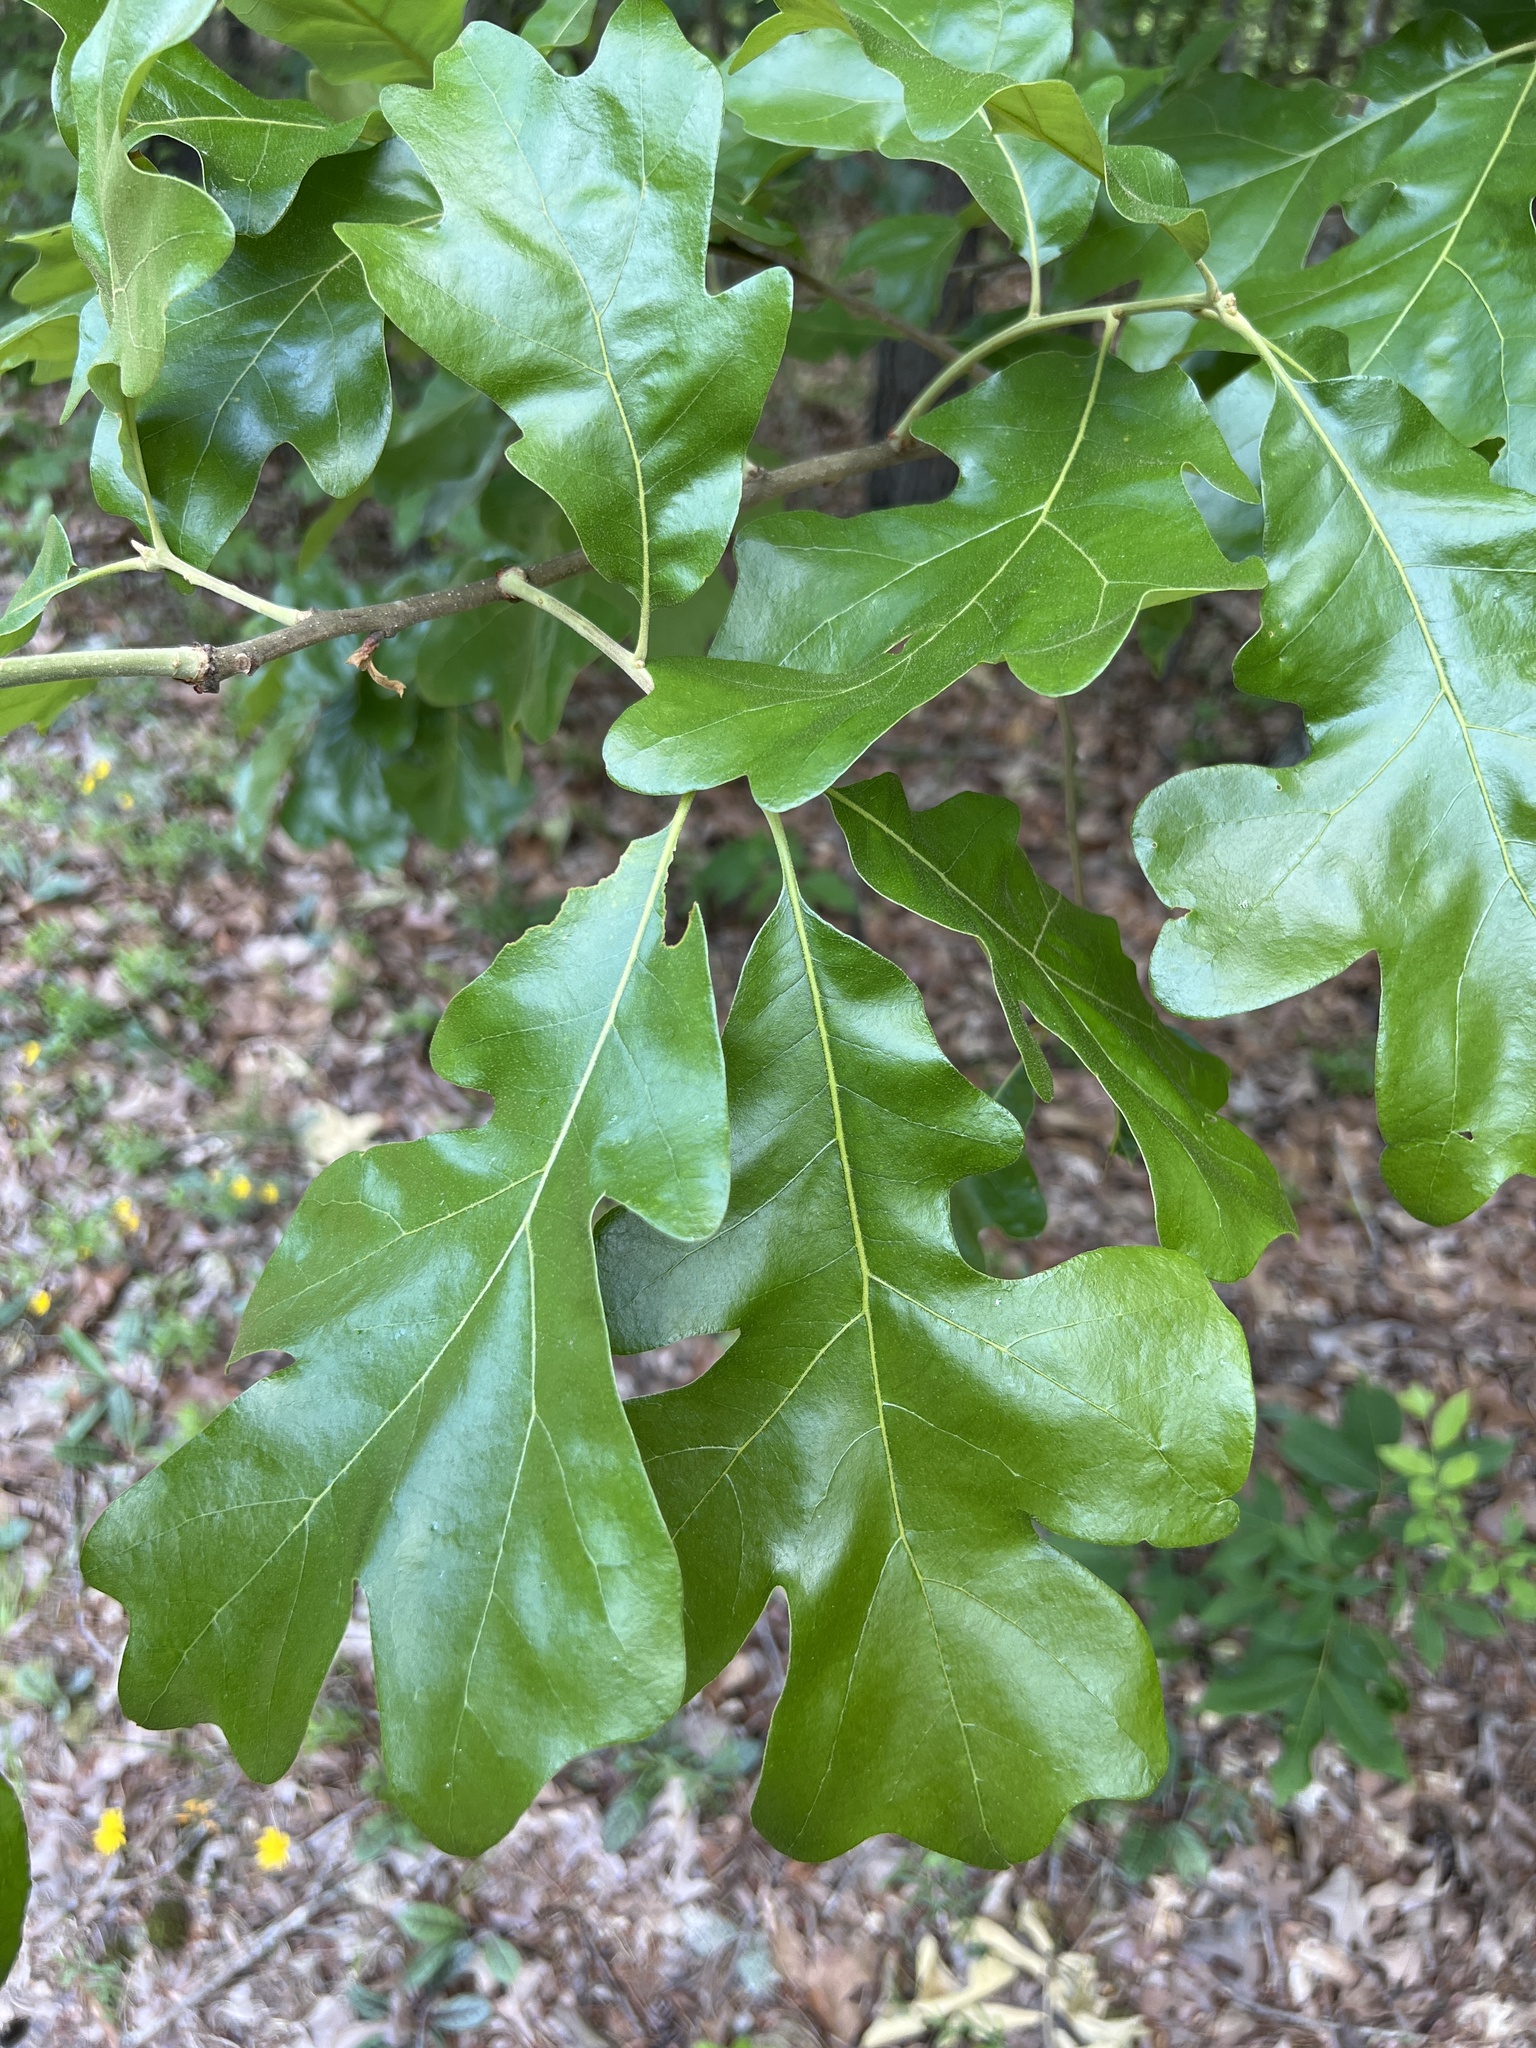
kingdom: Plantae
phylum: Tracheophyta
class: Magnoliopsida
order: Fagales
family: Fagaceae
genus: Quercus
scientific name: Quercus stellata
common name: Post oak
